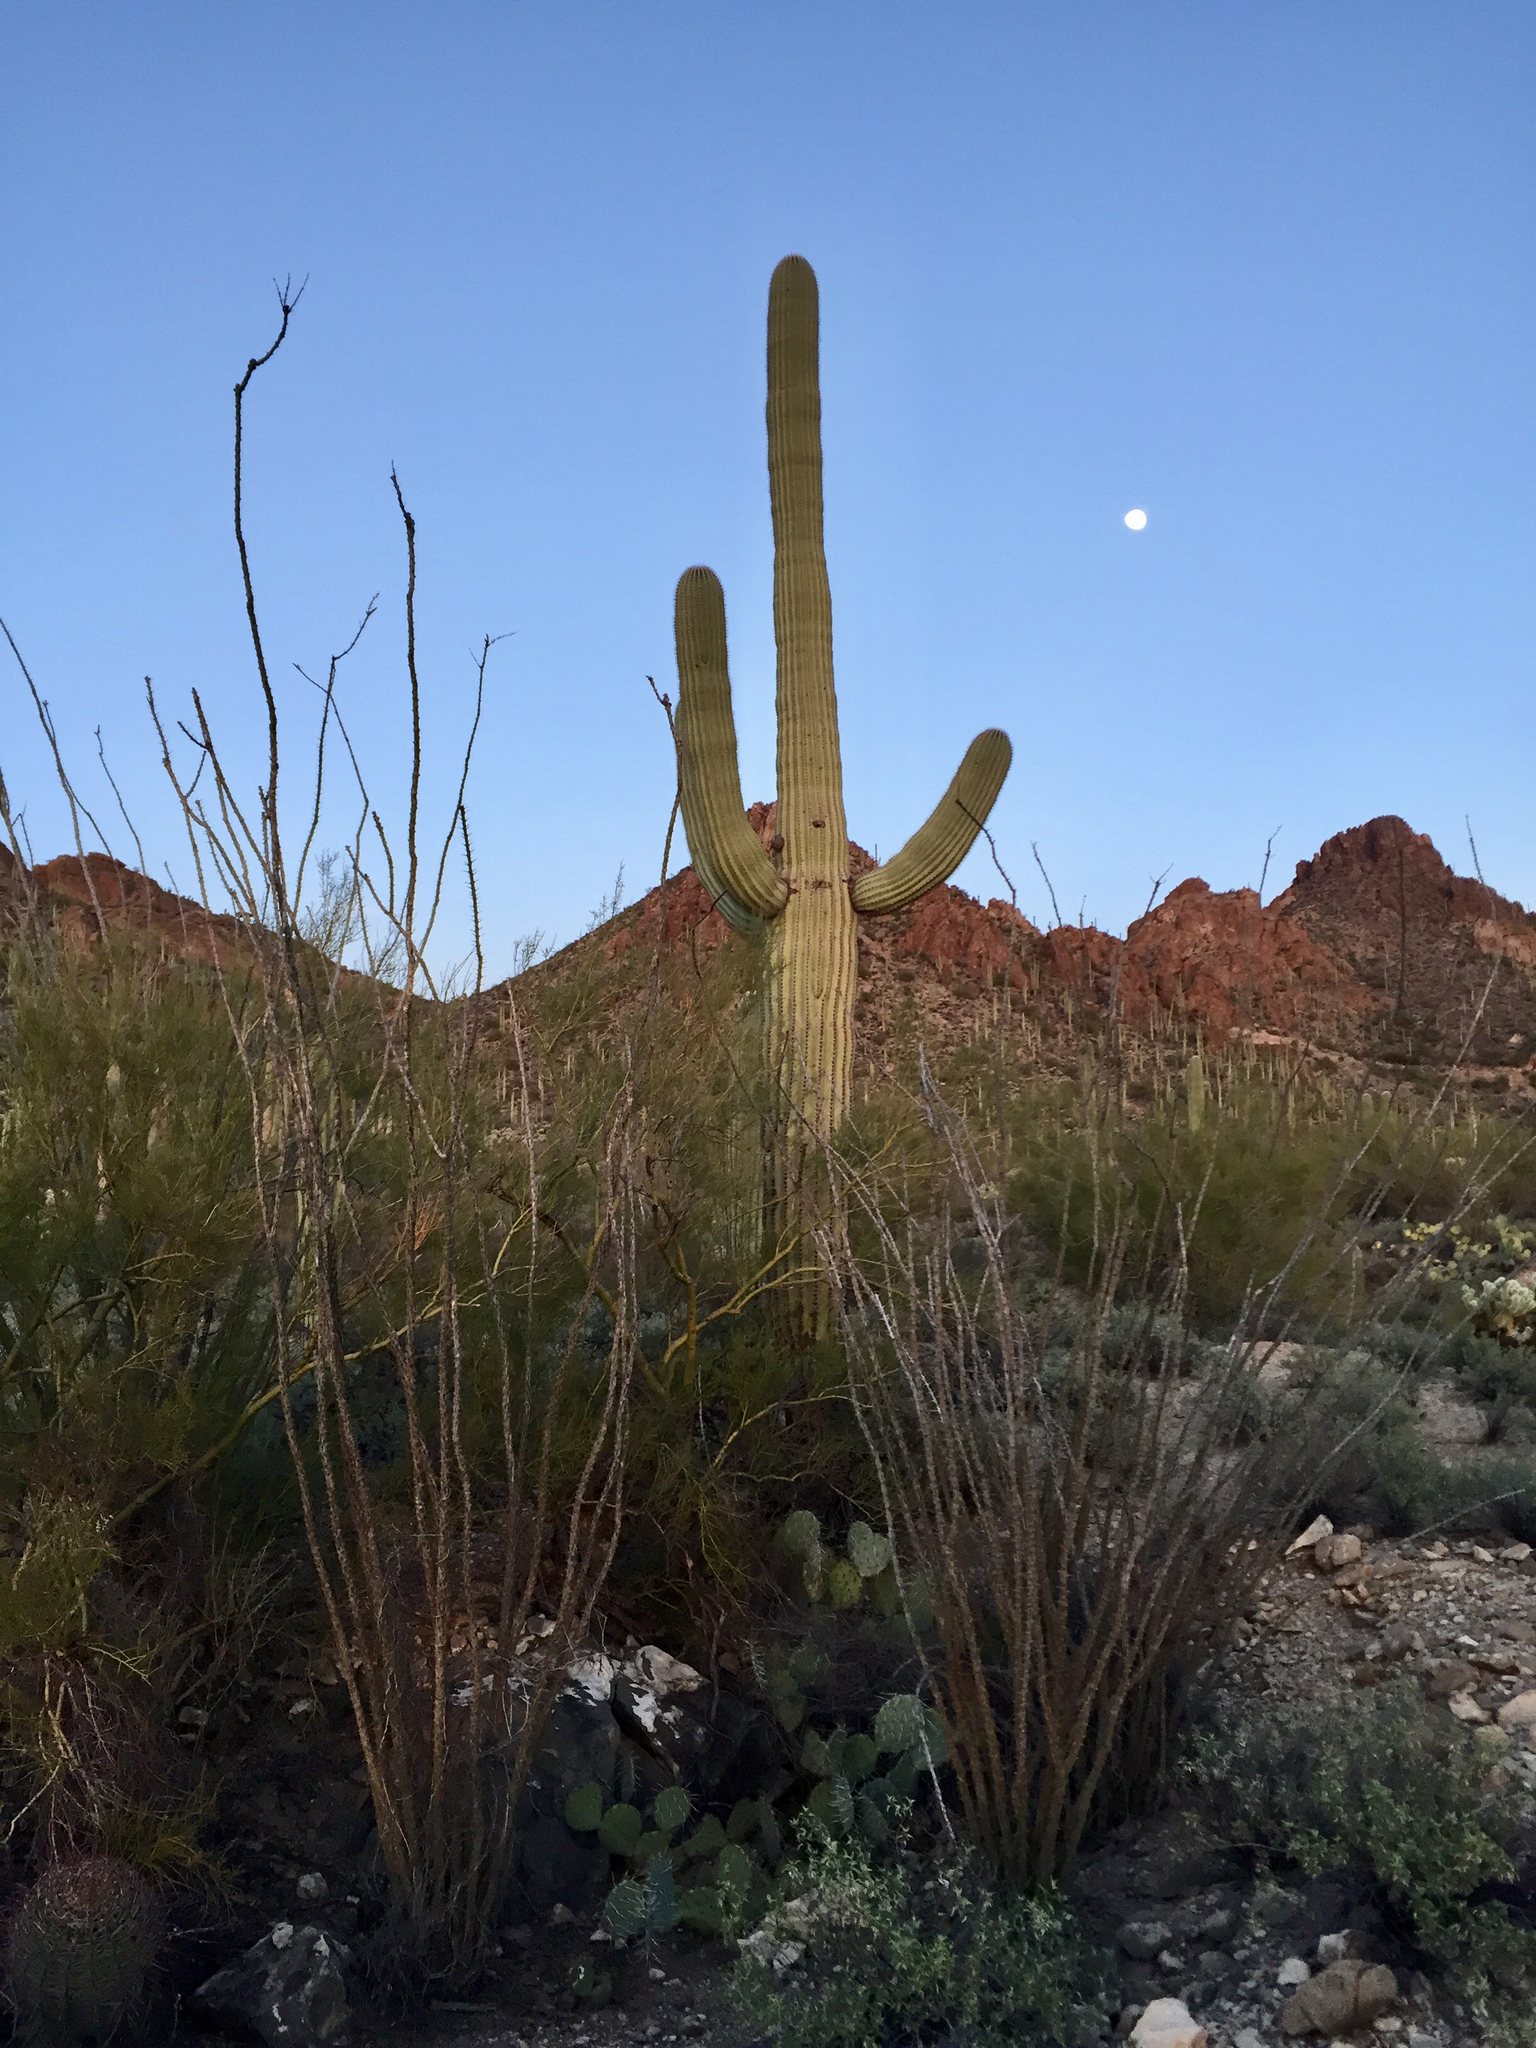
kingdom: Plantae
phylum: Tracheophyta
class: Magnoliopsida
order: Ericales
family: Fouquieriaceae
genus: Fouquieria
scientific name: Fouquieria splendens
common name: Vine-cactus
